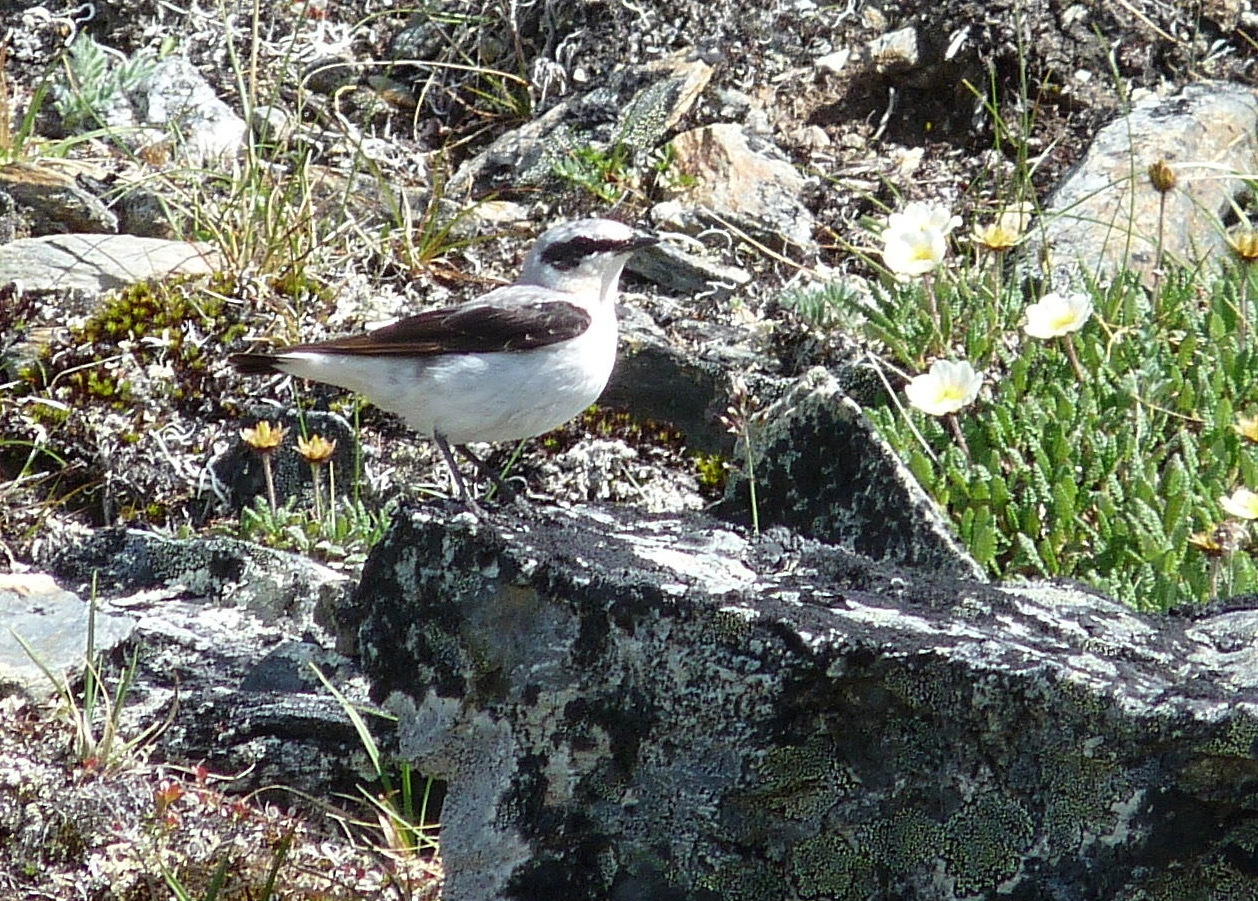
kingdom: Animalia
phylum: Chordata
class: Aves
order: Passeriformes
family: Muscicapidae
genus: Oenanthe
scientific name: Oenanthe oenanthe
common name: Northern wheatear
